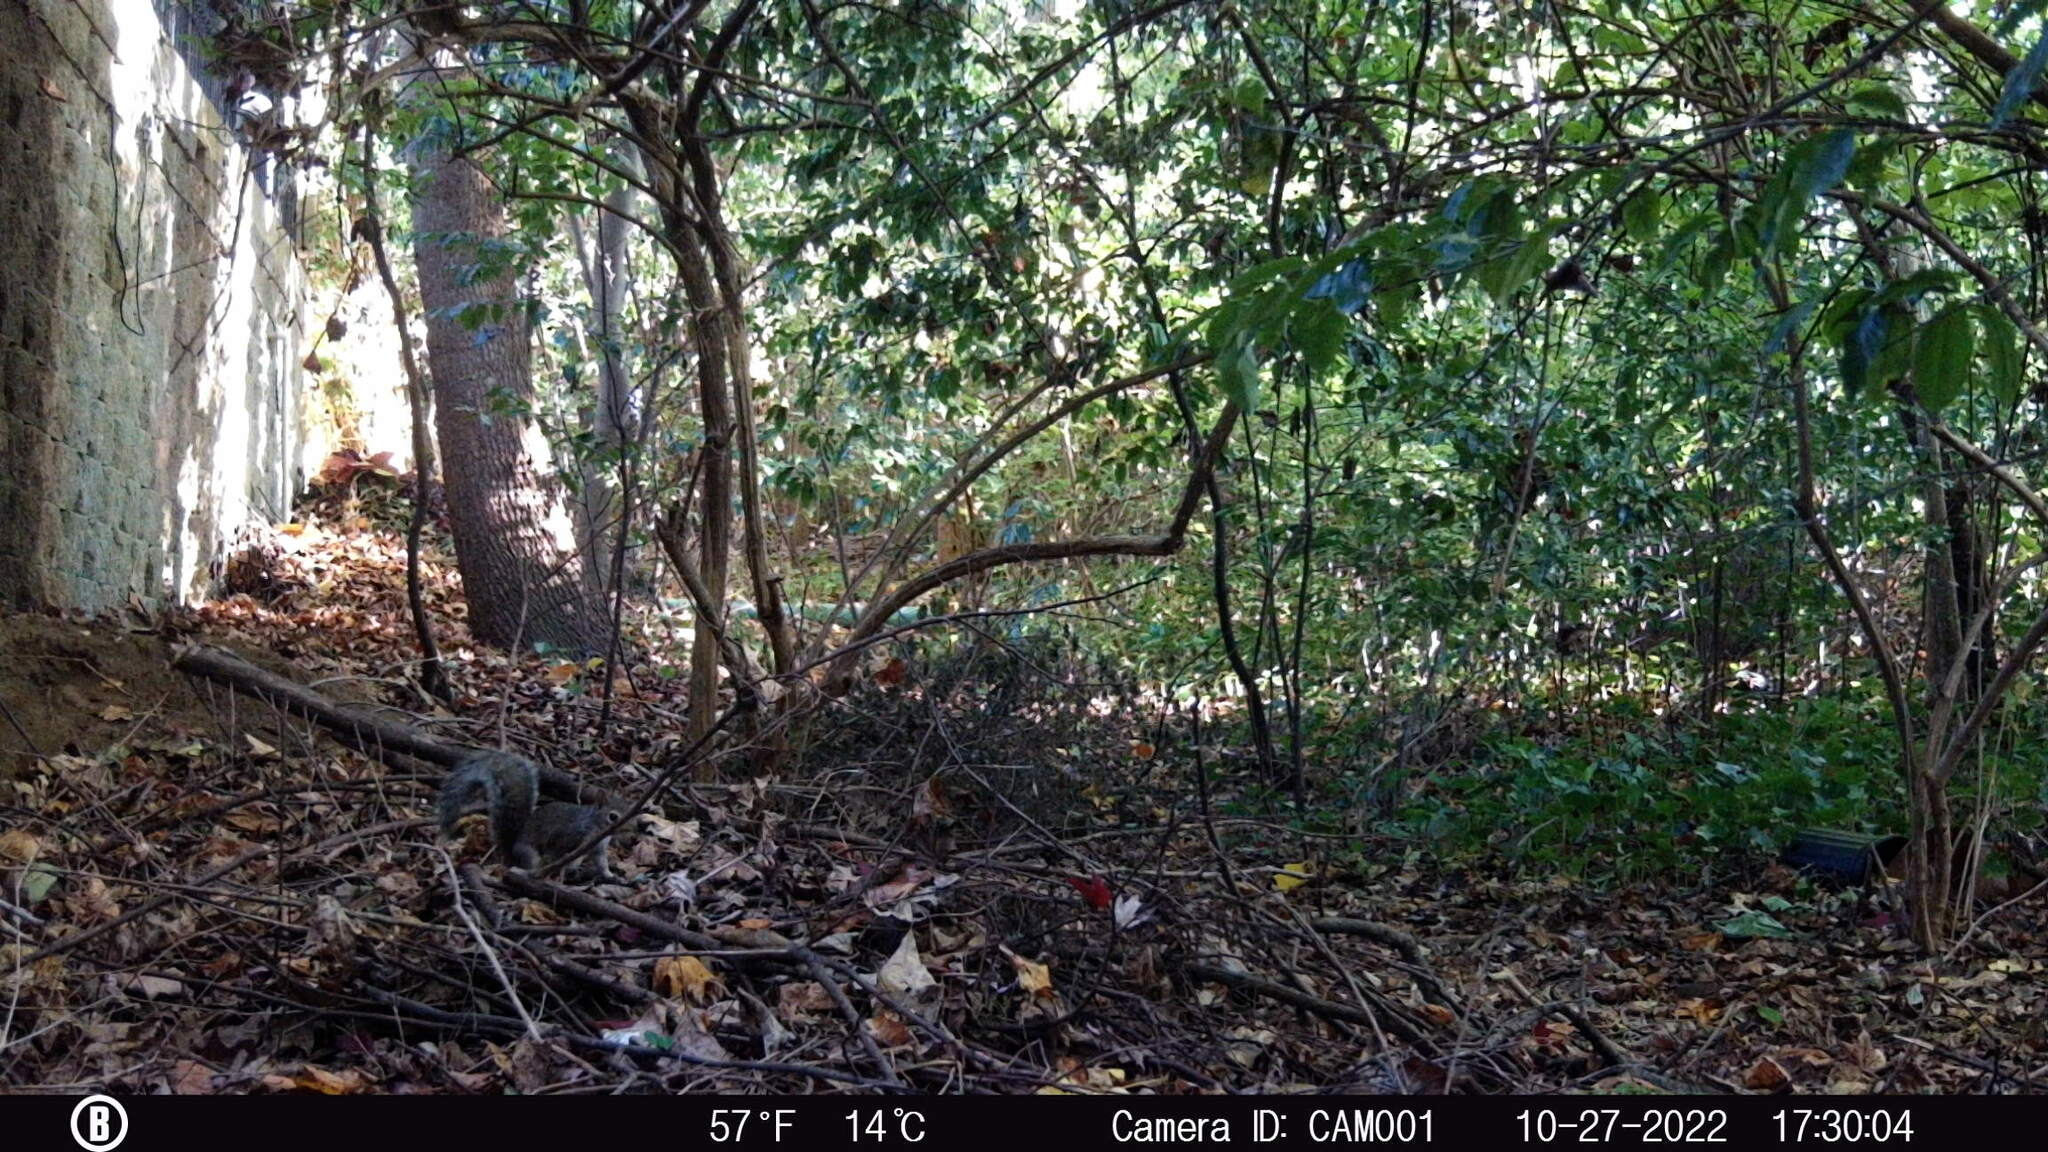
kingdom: Animalia
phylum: Chordata
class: Mammalia
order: Rodentia
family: Sciuridae
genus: Sciurus
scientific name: Sciurus carolinensis
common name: Eastern gray squirrel
